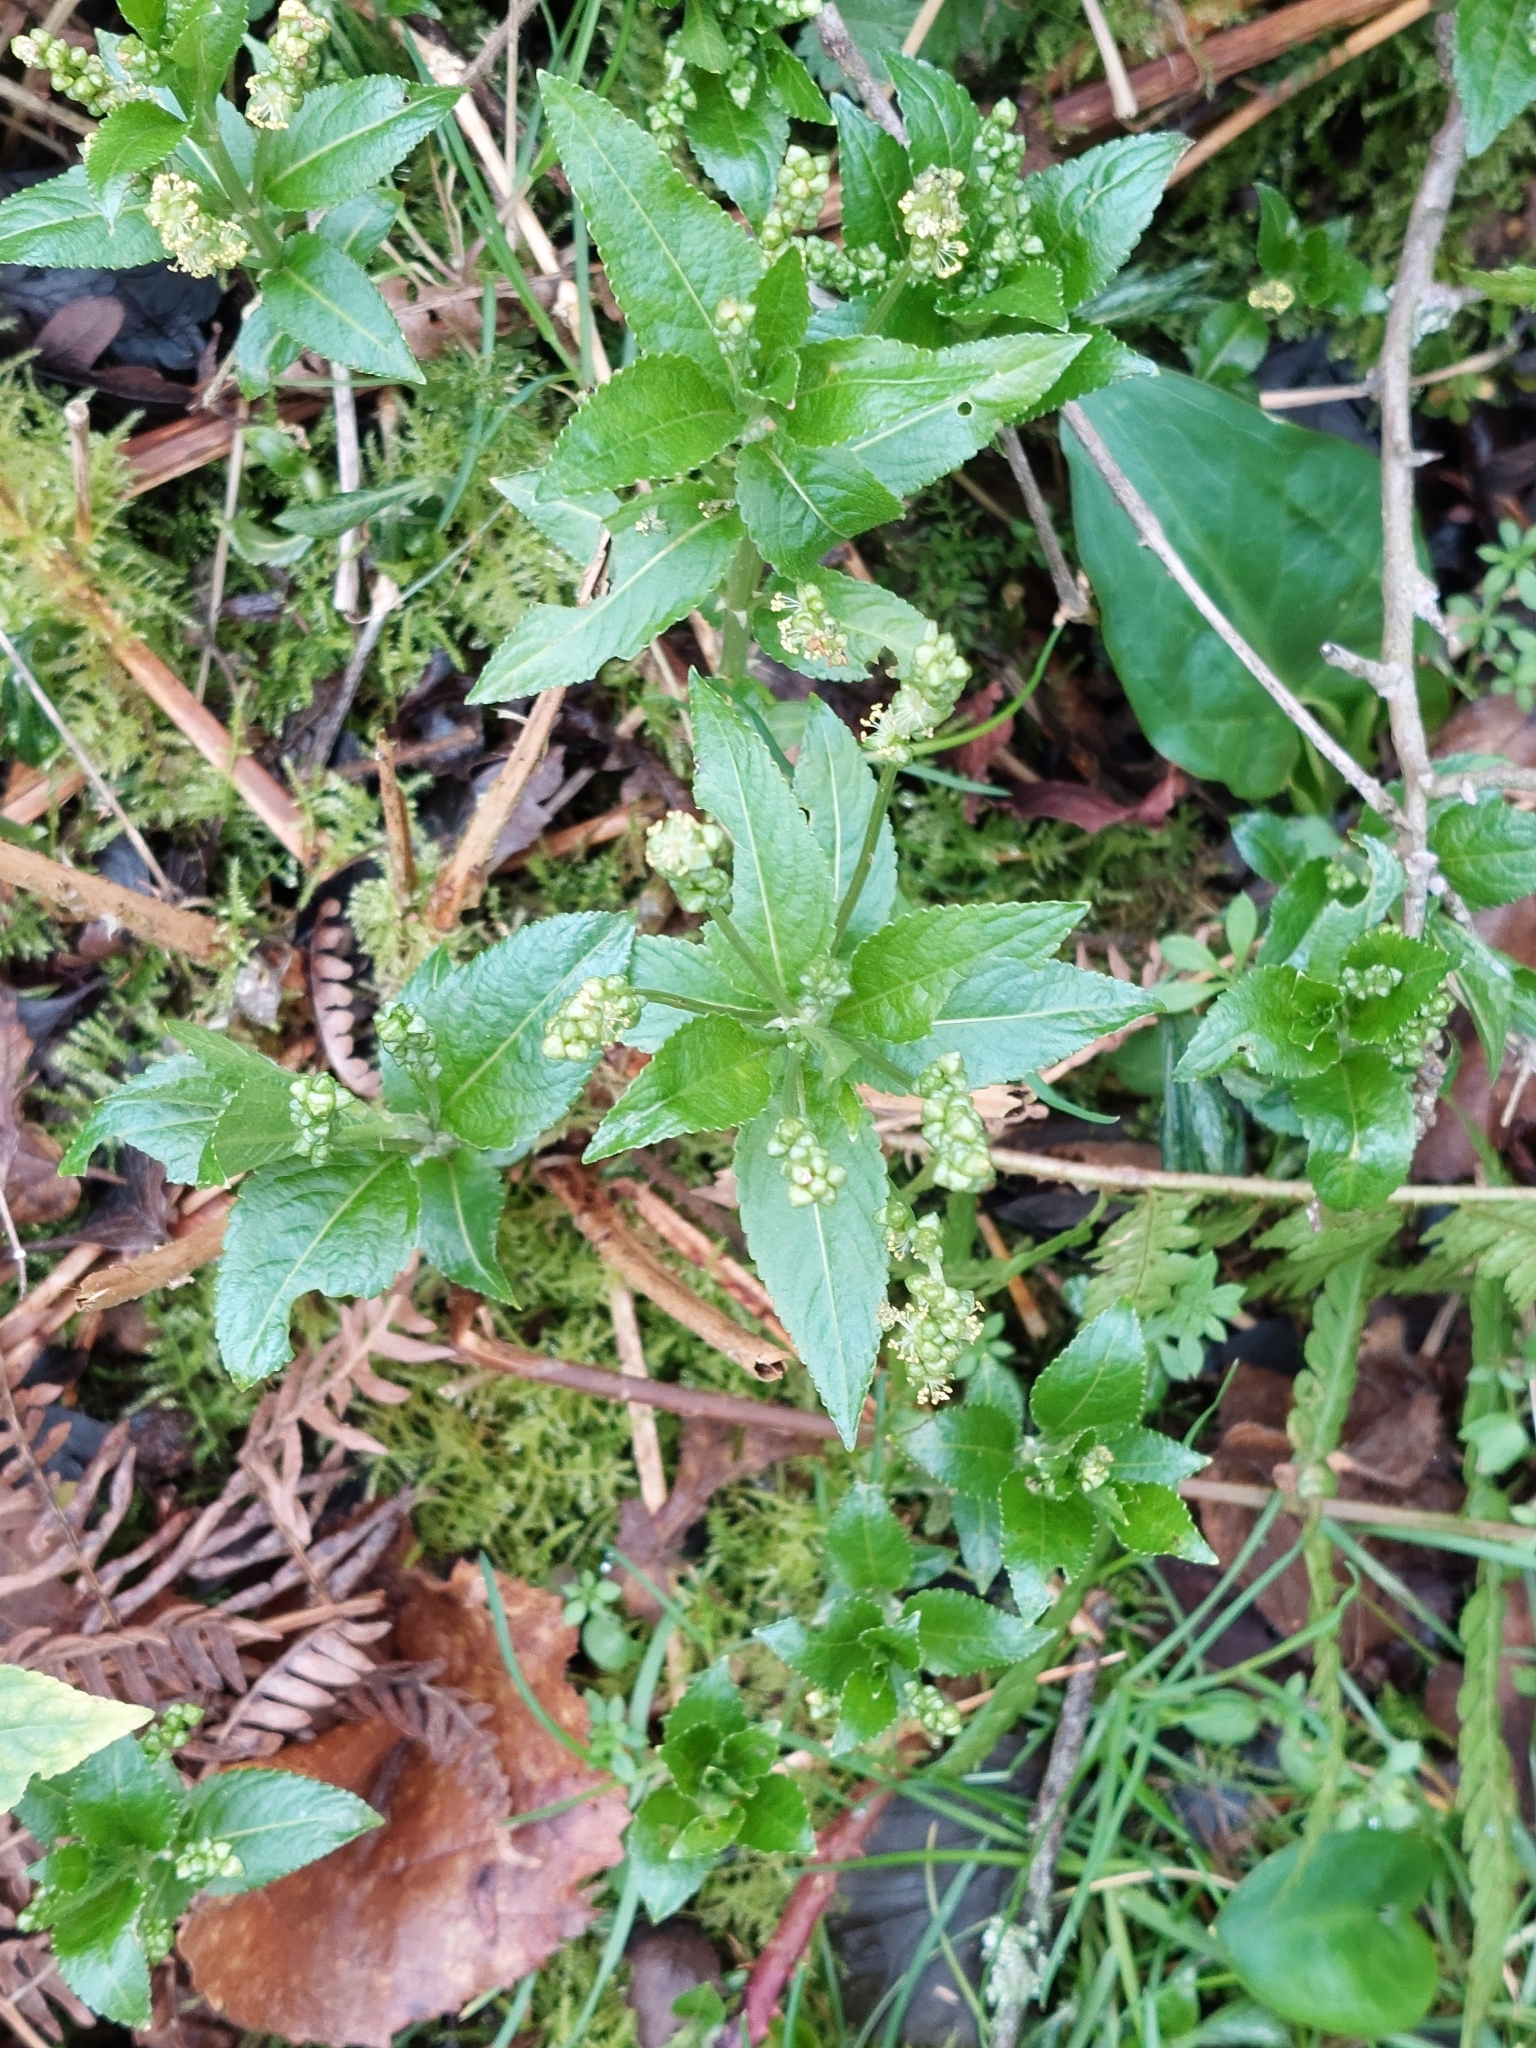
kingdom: Plantae
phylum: Tracheophyta
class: Magnoliopsida
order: Malpighiales
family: Euphorbiaceae
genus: Mercurialis
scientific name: Mercurialis perennis
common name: Dog mercury
